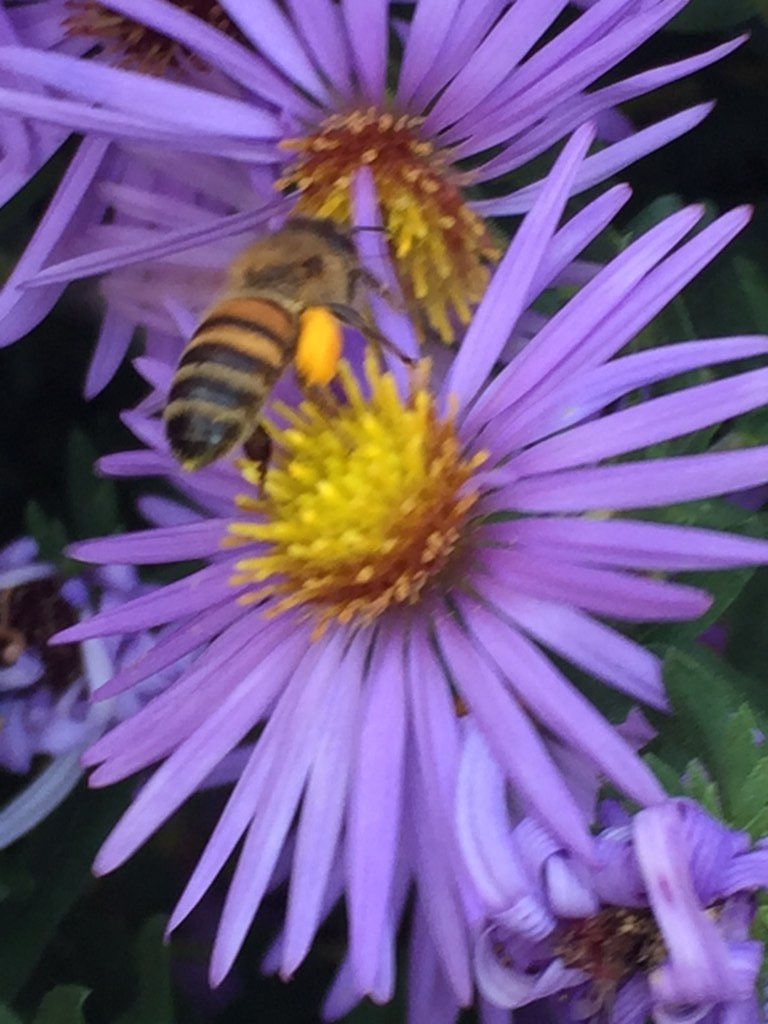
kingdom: Animalia
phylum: Arthropoda
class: Insecta
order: Hymenoptera
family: Apidae
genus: Apis
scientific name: Apis mellifera
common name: Honey bee
